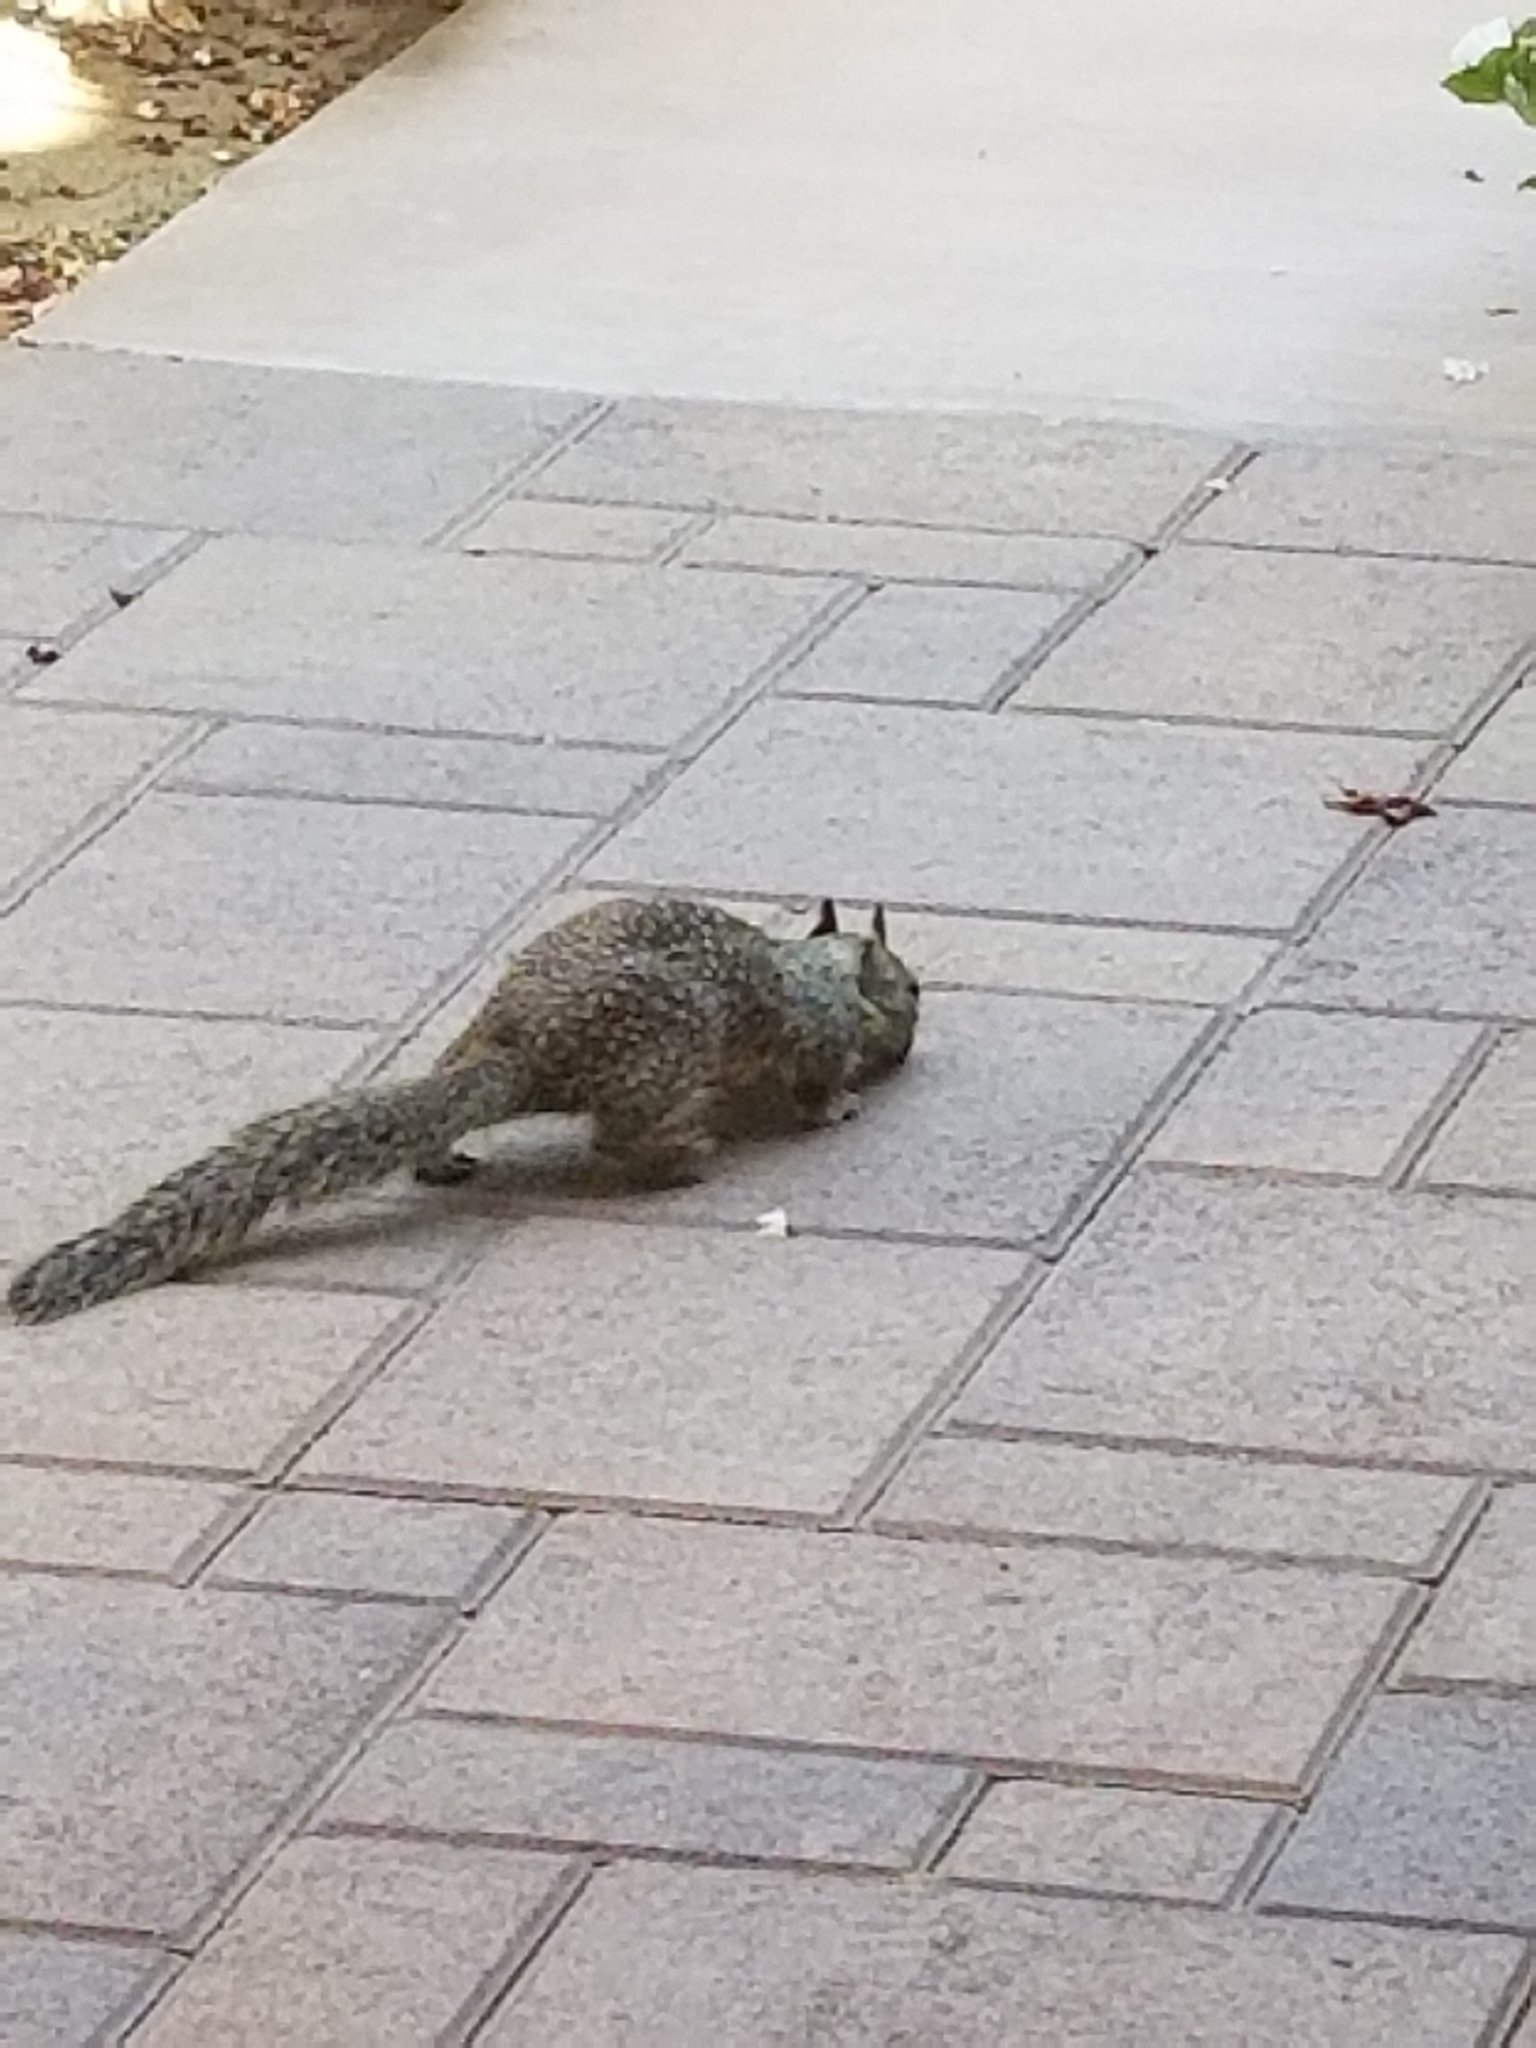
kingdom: Animalia
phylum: Chordata
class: Mammalia
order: Rodentia
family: Sciuridae
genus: Otospermophilus
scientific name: Otospermophilus beecheyi
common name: California ground squirrel
